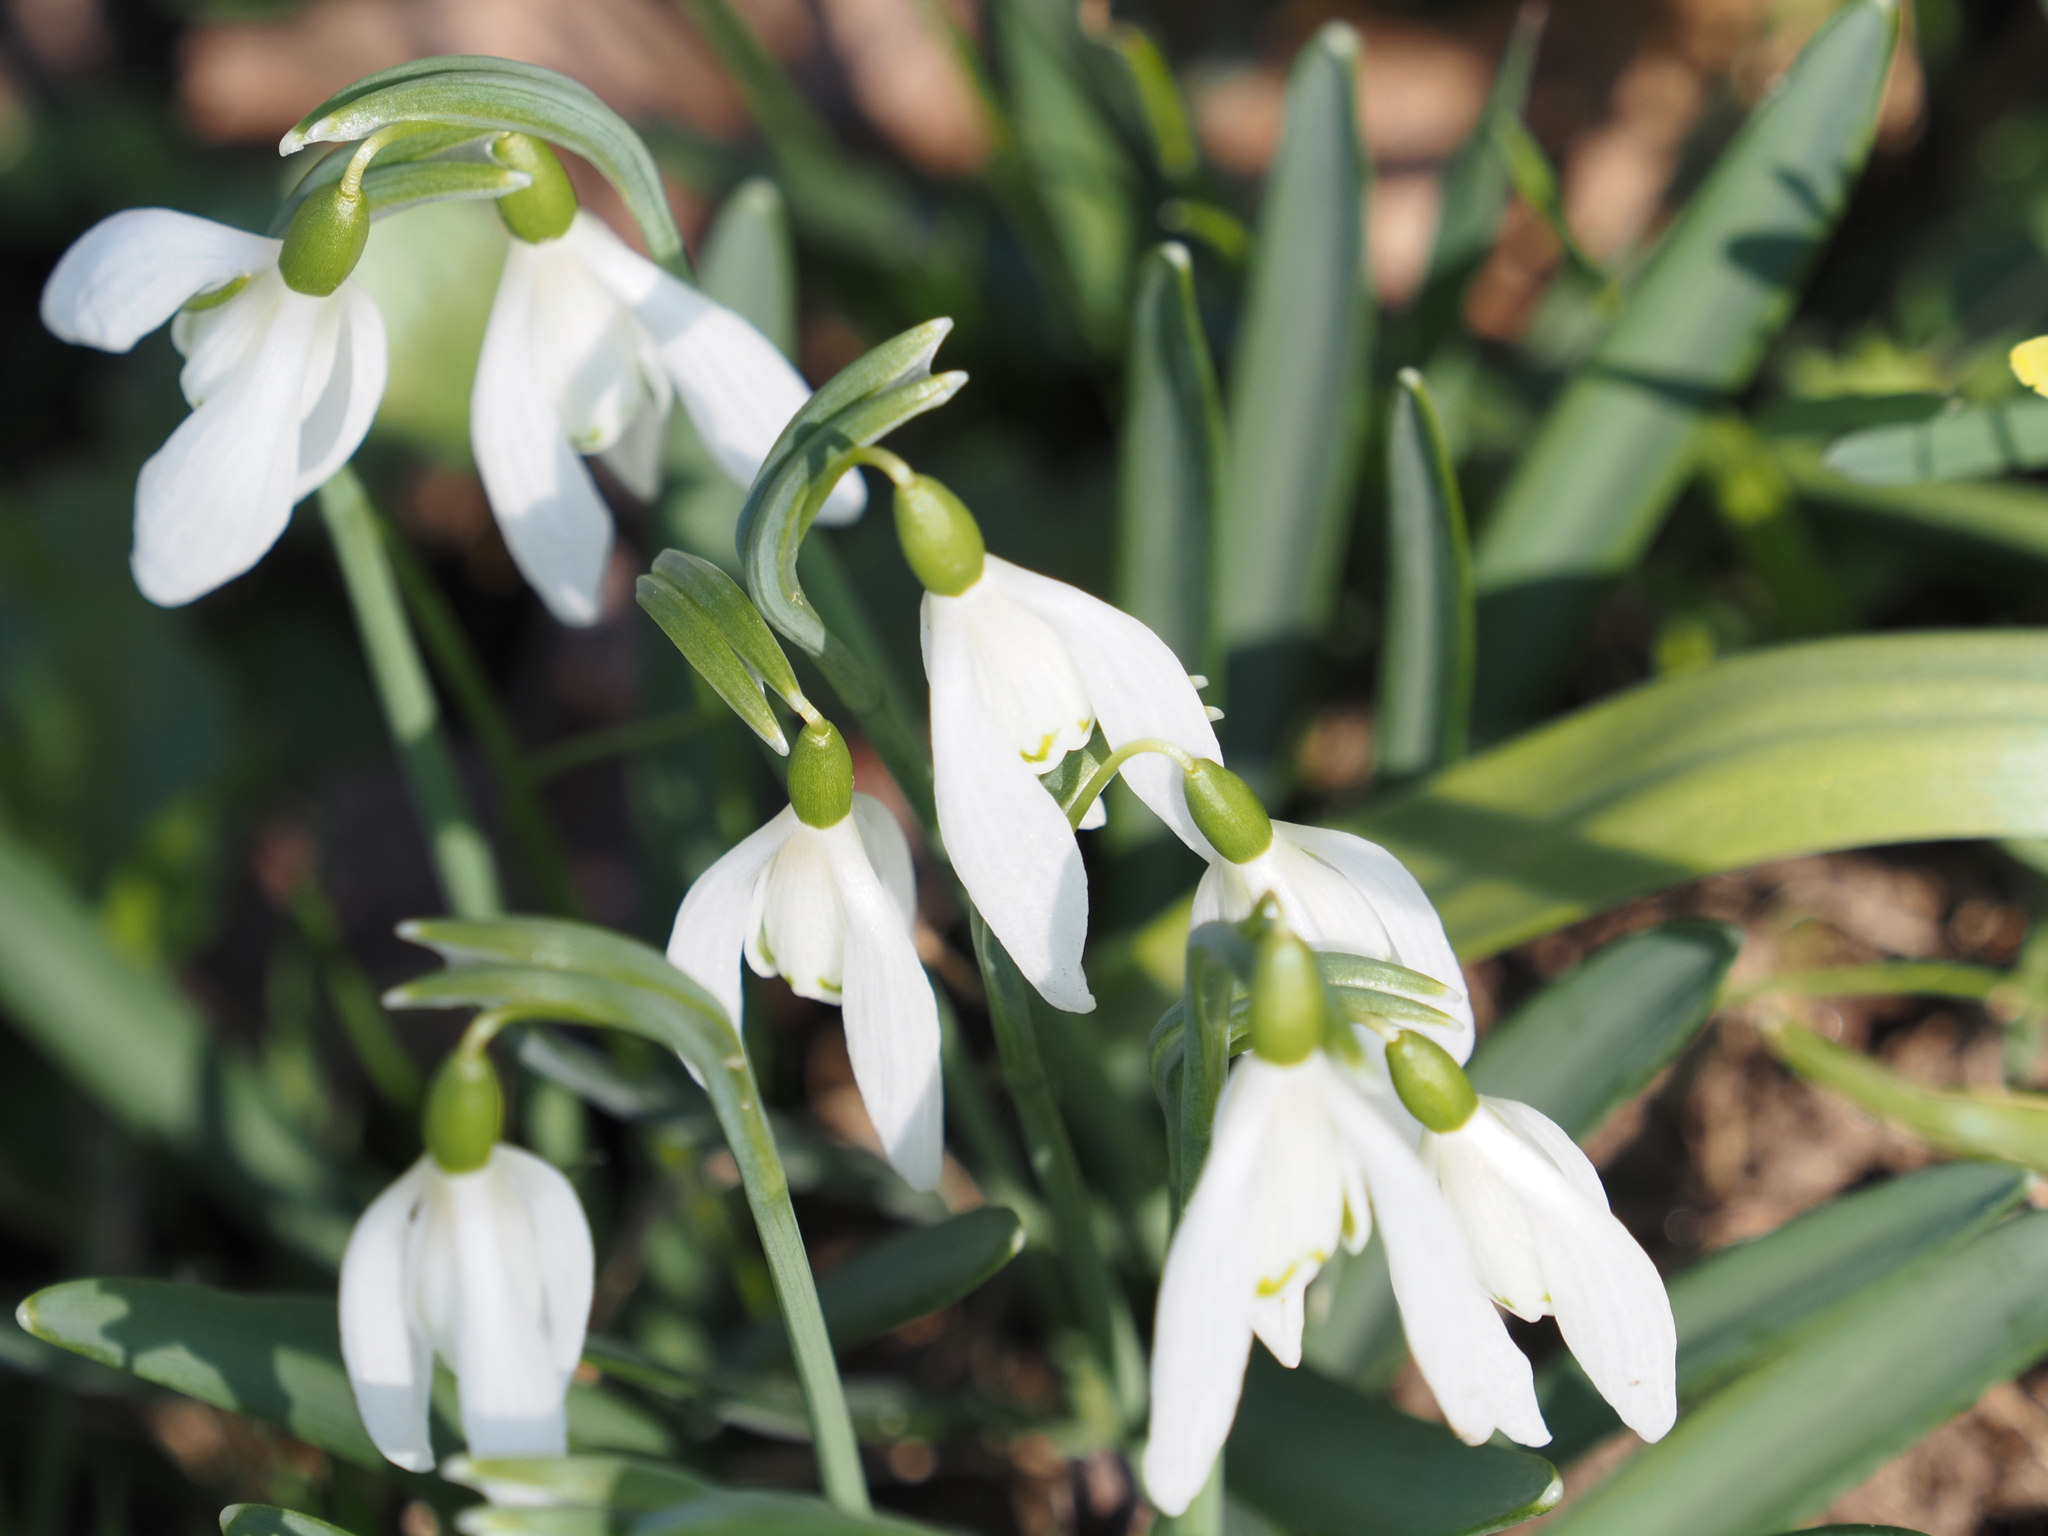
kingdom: Plantae
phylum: Tracheophyta
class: Liliopsida
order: Asparagales
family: Amaryllidaceae
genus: Galanthus
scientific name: Galanthus nivalis
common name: Snowdrop
